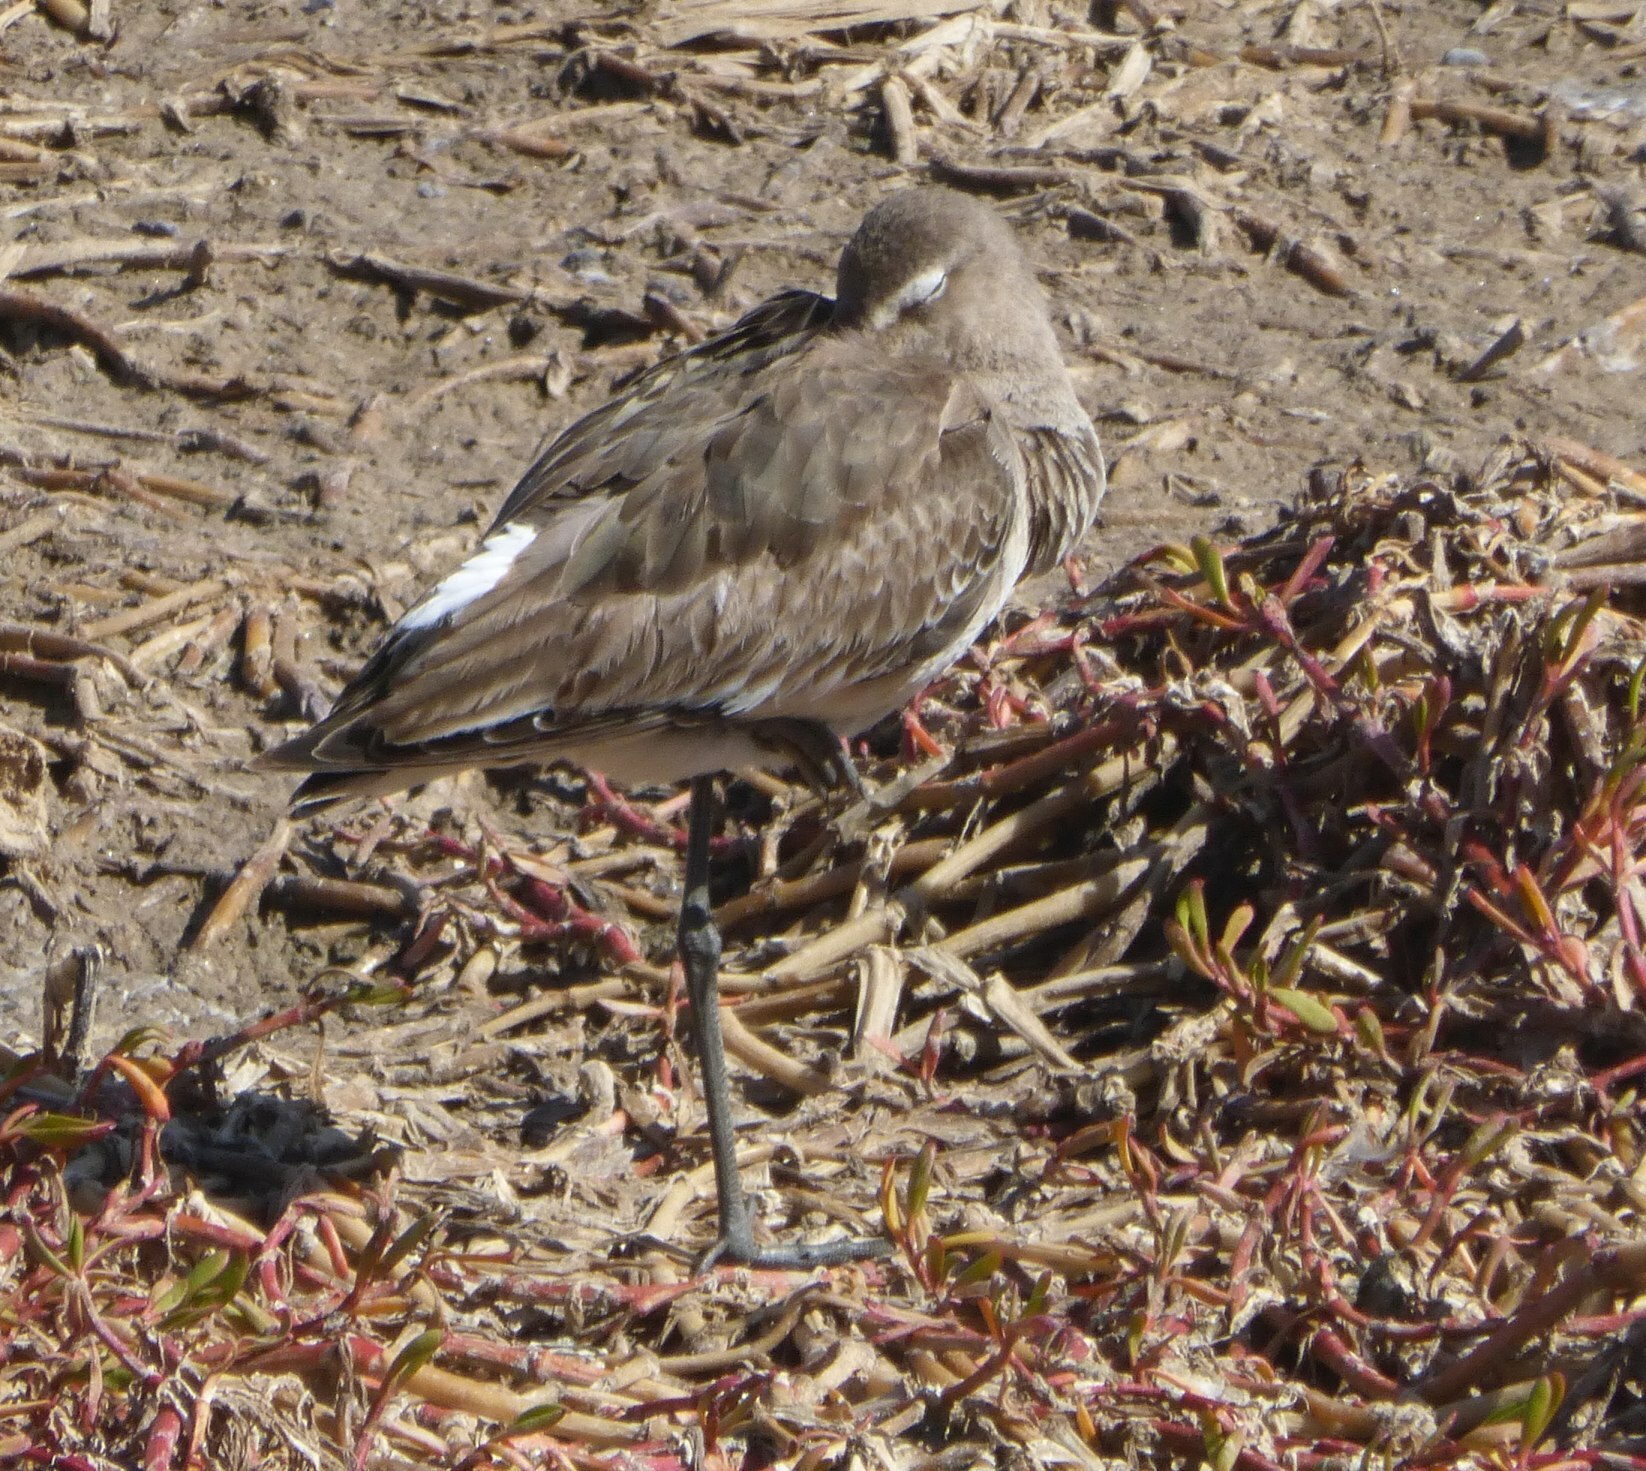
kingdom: Animalia
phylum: Chordata
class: Aves
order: Charadriiformes
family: Scolopacidae
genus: Limosa
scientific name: Limosa limosa
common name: Black-tailed godwit
